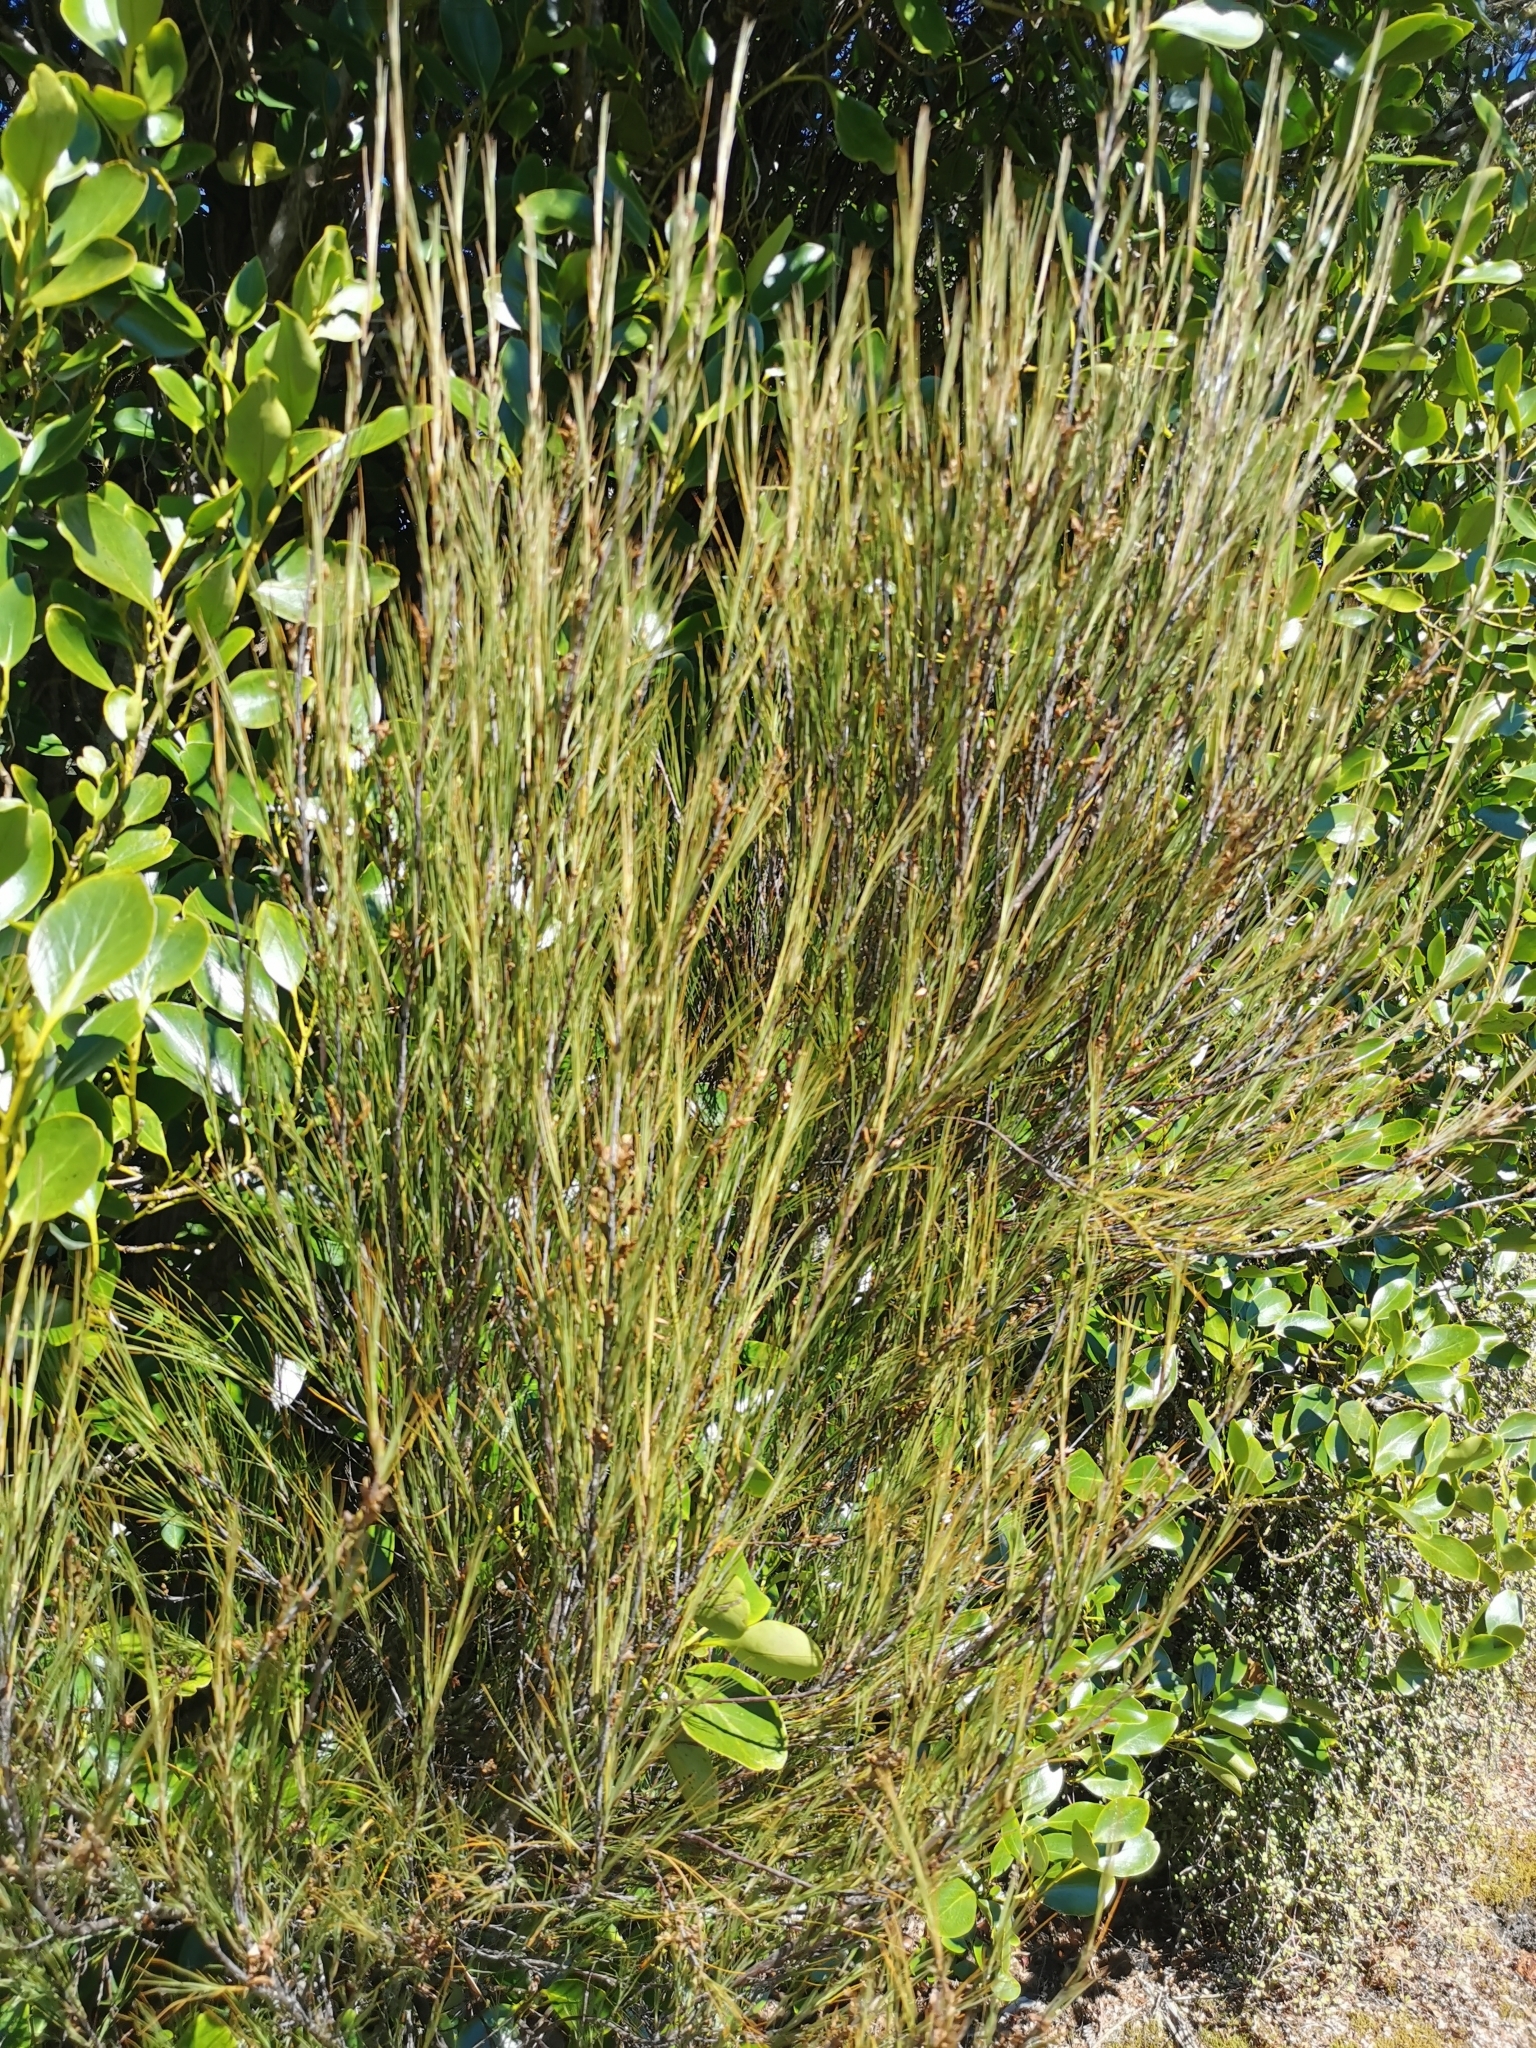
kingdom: Plantae
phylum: Tracheophyta
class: Magnoliopsida
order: Ericales
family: Ericaceae
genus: Dracophyllum
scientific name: Dracophyllum filifolium
